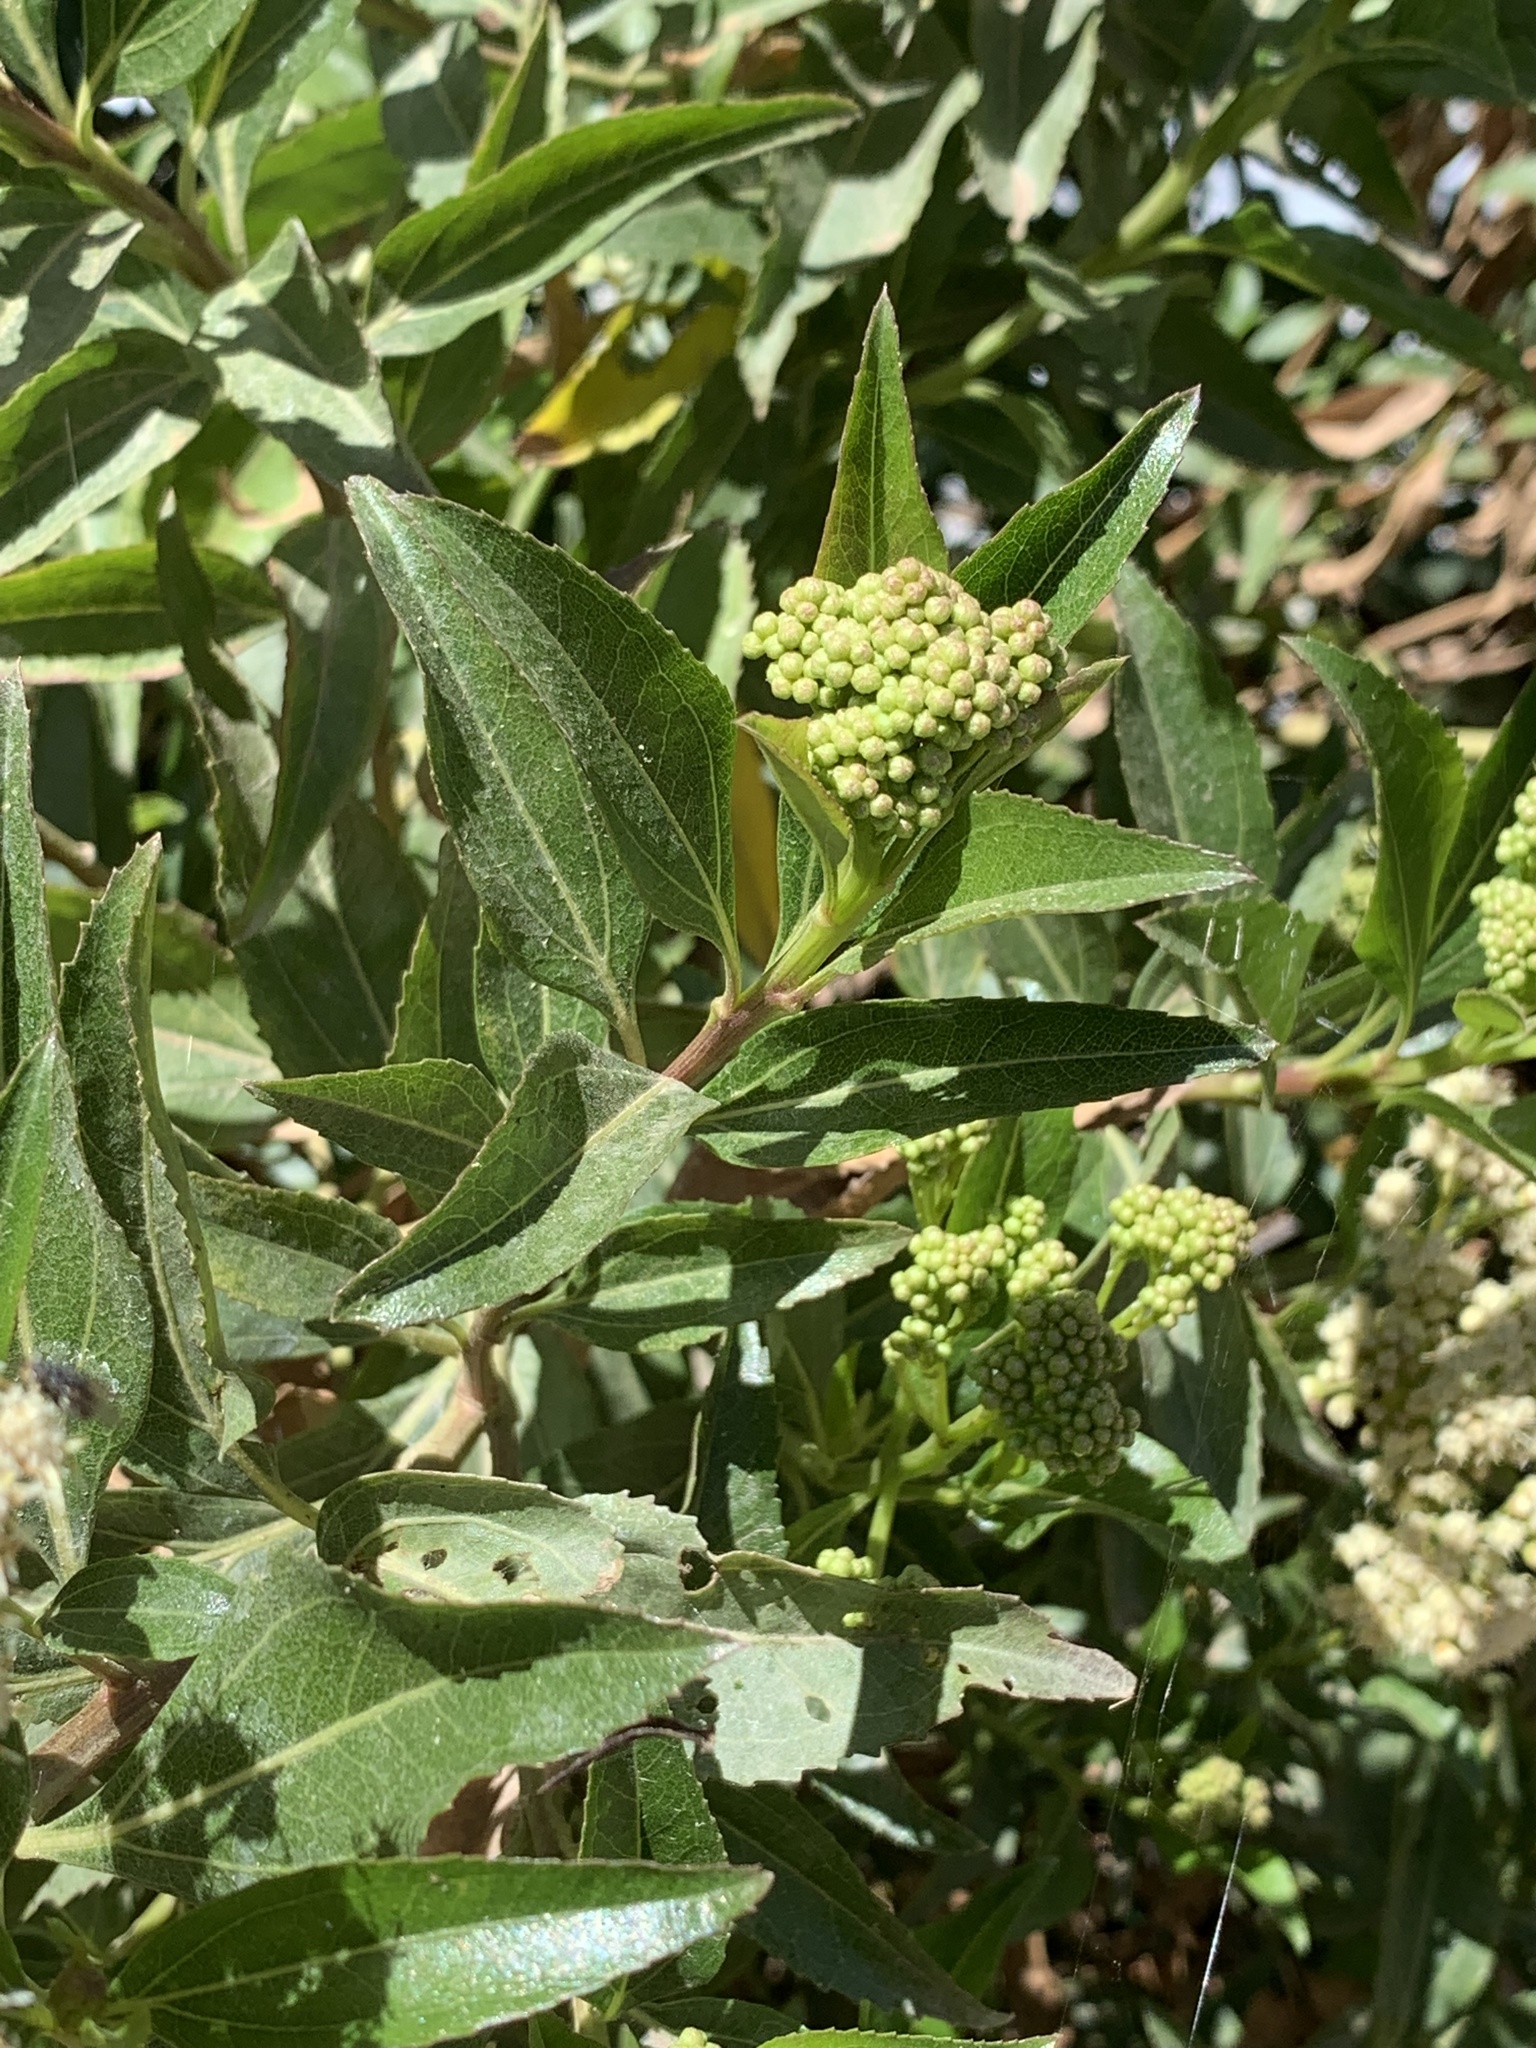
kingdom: Plantae
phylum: Tracheophyta
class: Magnoliopsida
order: Asterales
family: Asteraceae
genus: Baccharis
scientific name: Baccharis latifolia
